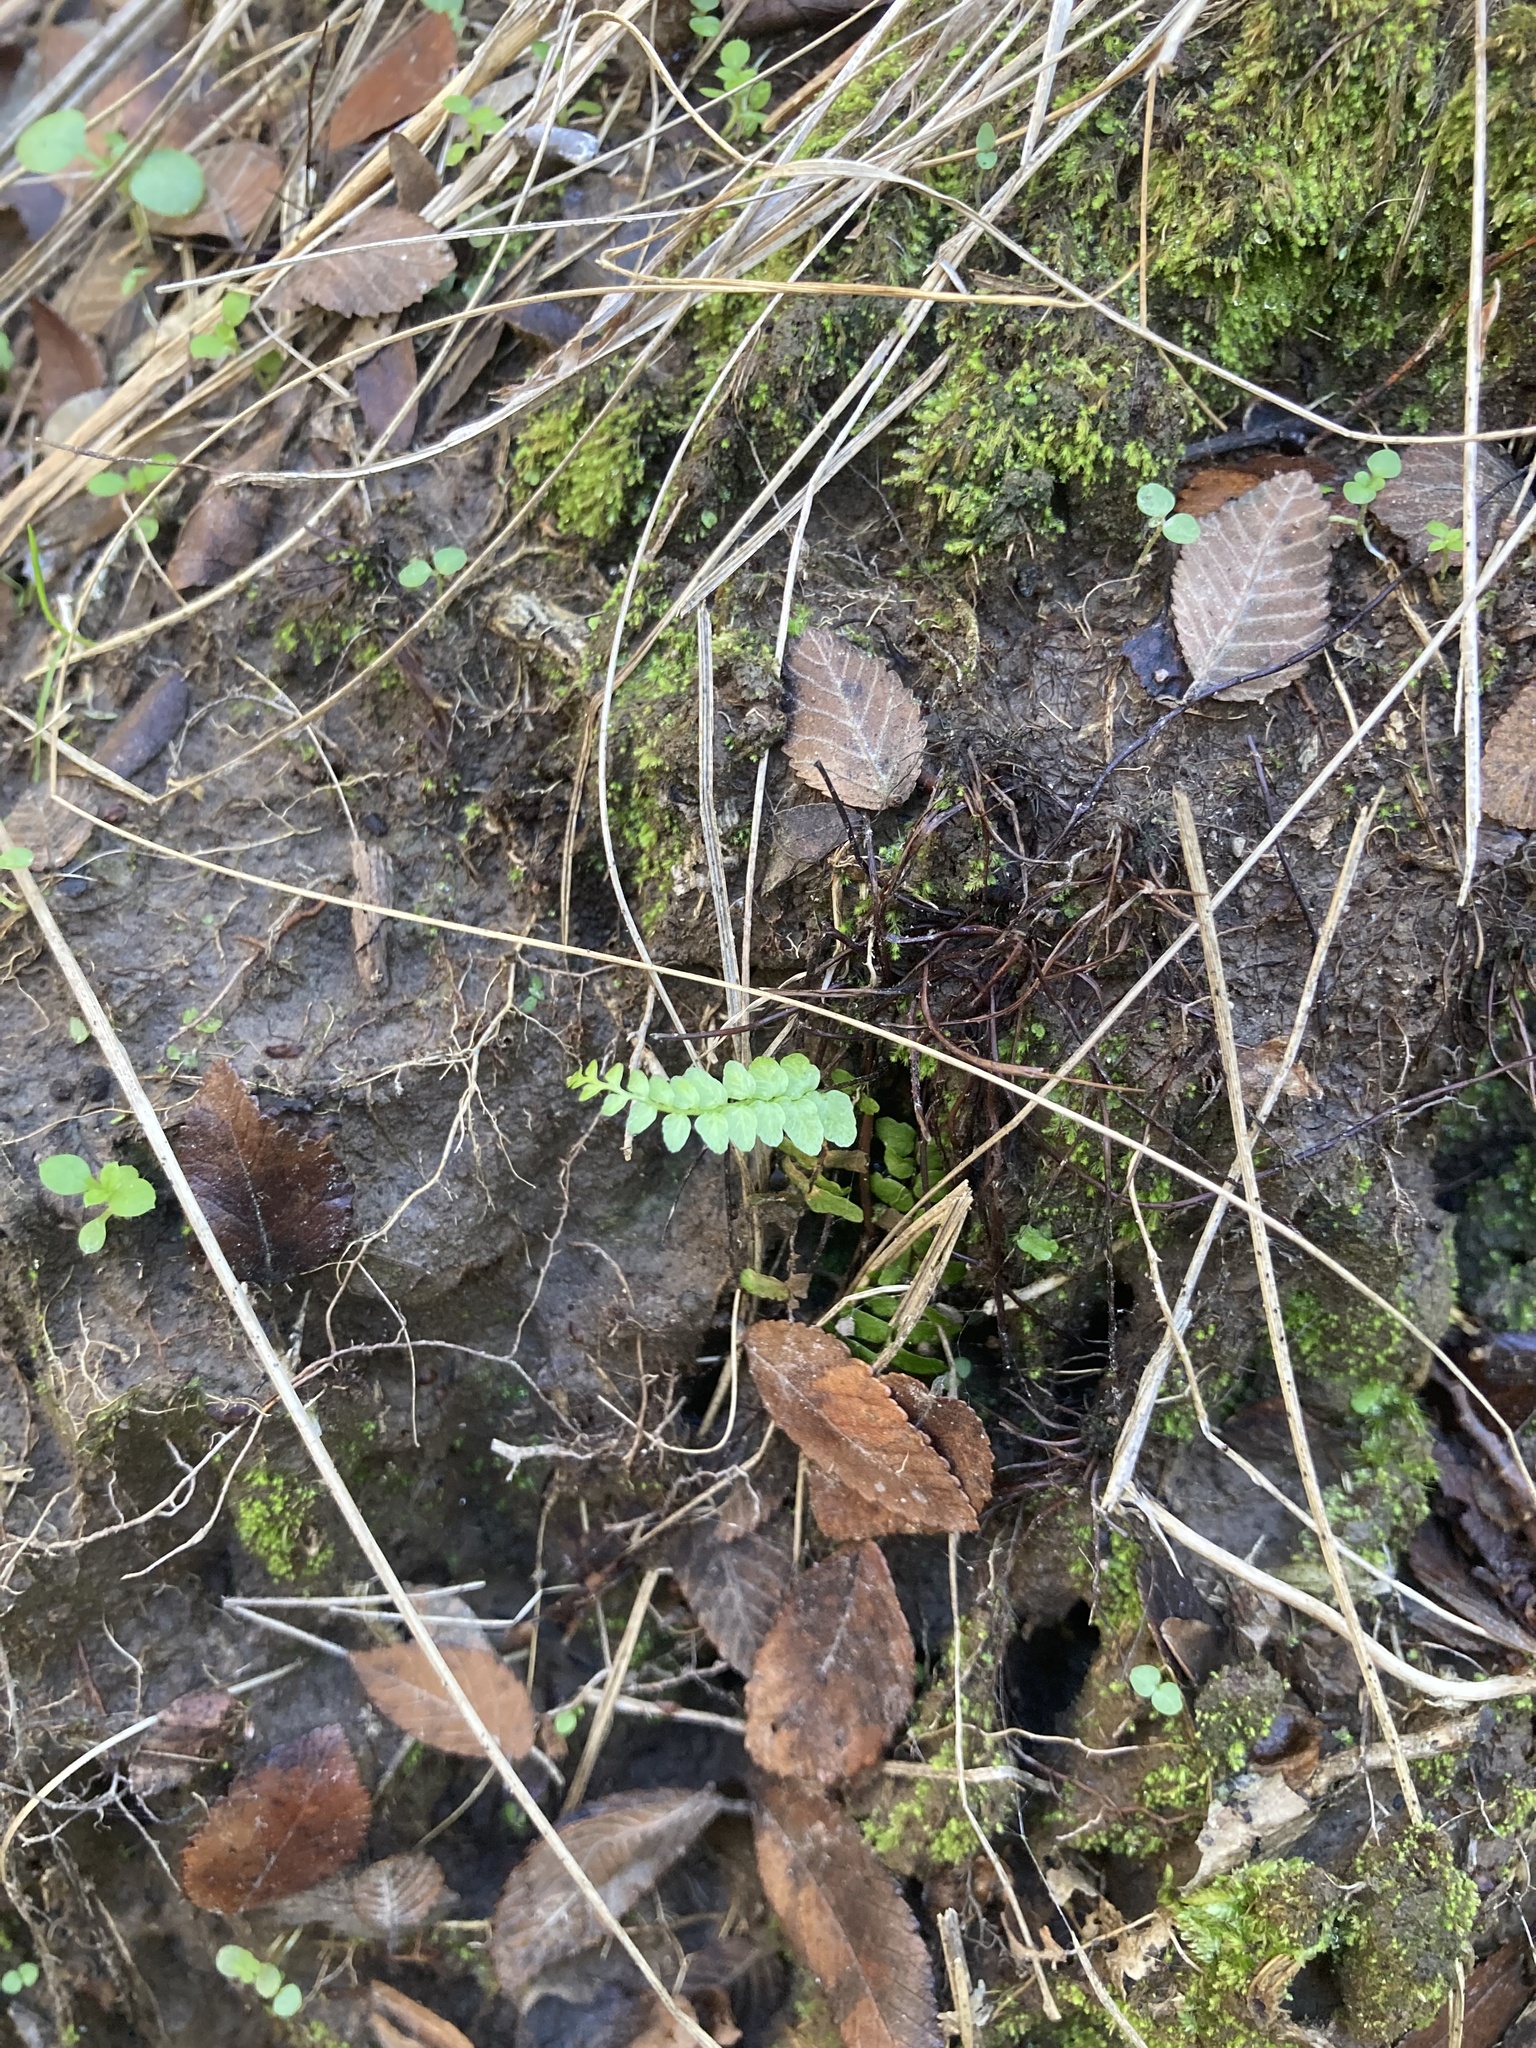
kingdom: Plantae
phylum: Tracheophyta
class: Polypodiopsida
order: Polypodiales
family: Aspleniaceae
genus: Asplenium
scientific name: Asplenium platyneuron
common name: Ebony spleenwort
